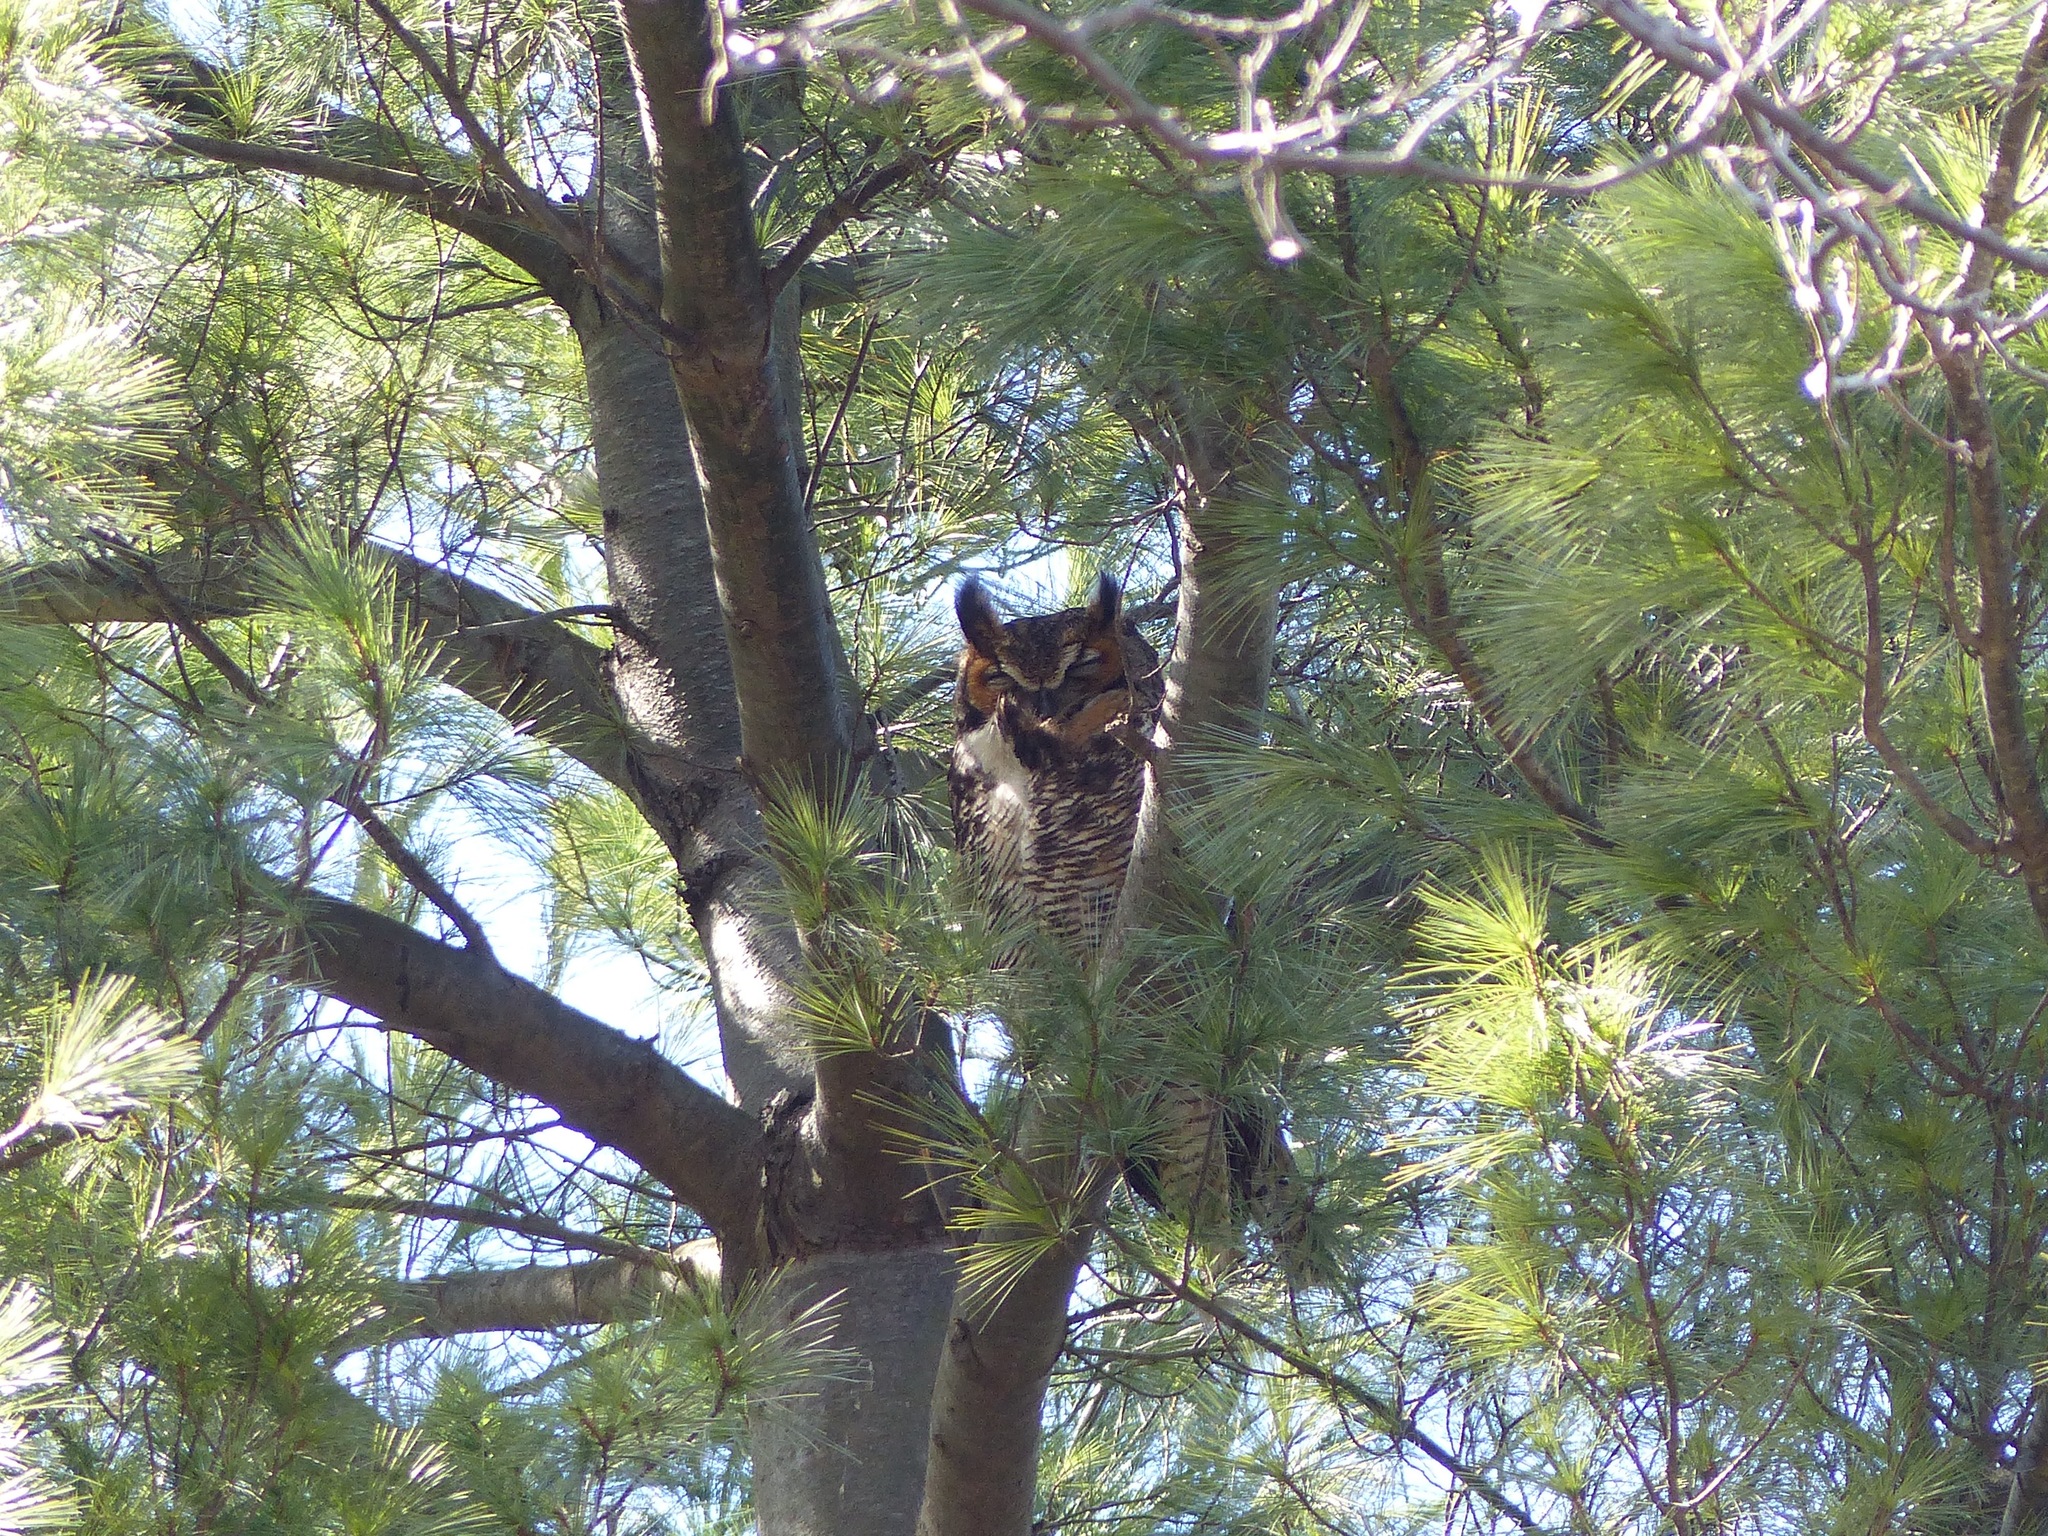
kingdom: Animalia
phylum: Chordata
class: Aves
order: Strigiformes
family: Strigidae
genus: Bubo
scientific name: Bubo virginianus
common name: Great horned owl
